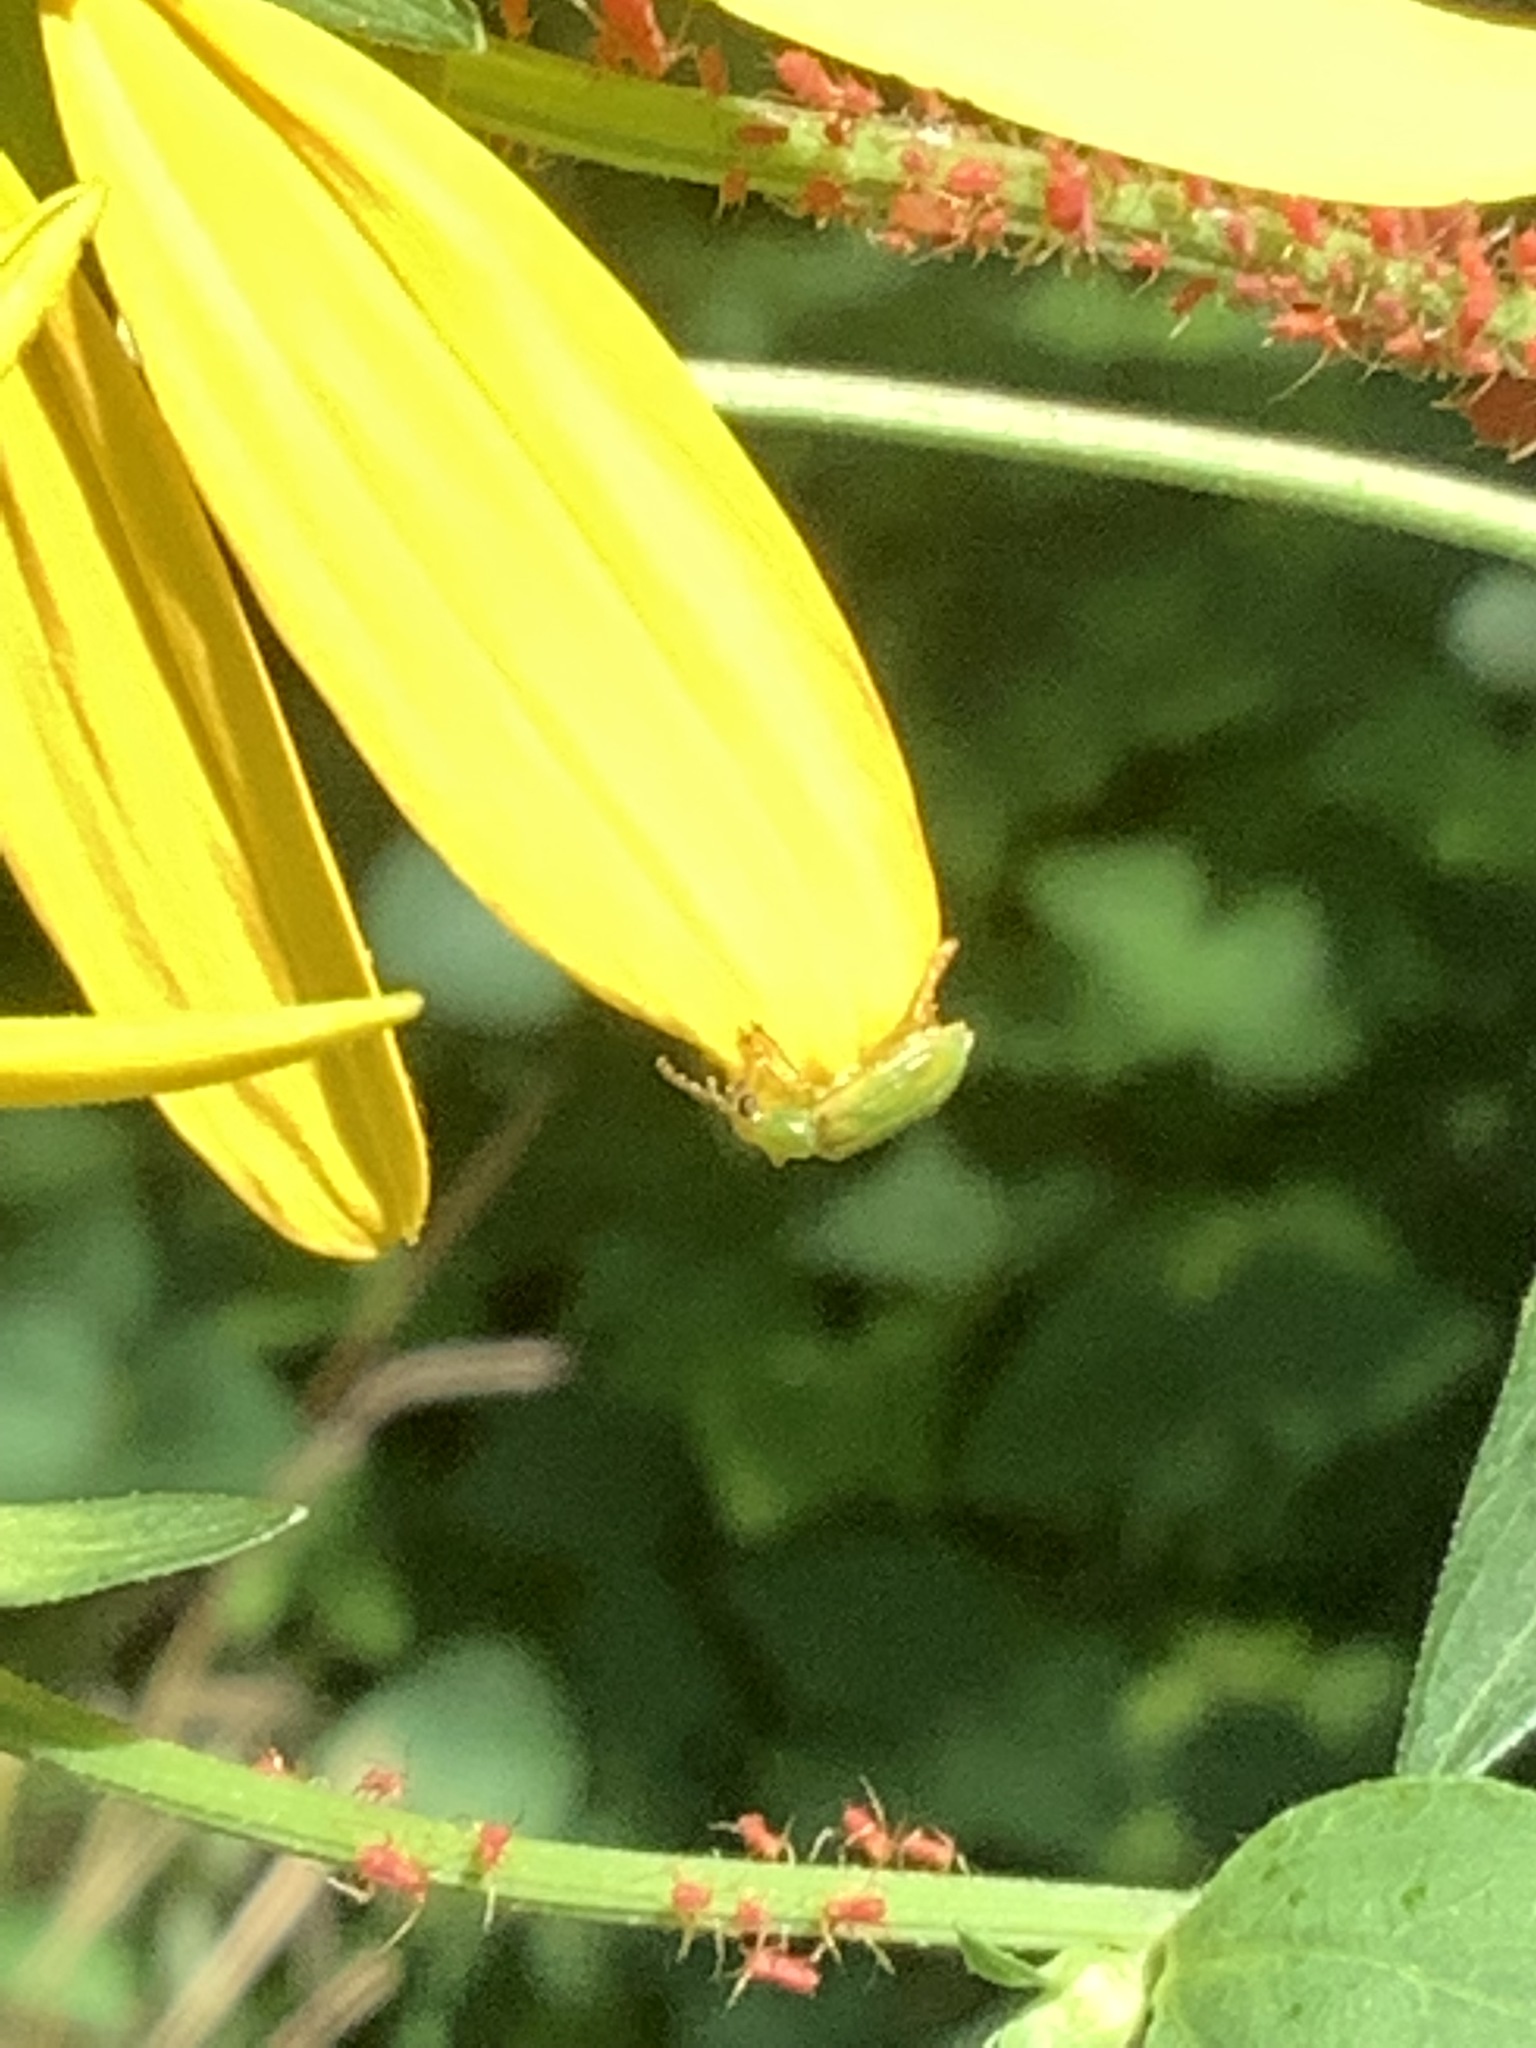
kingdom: Animalia
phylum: Arthropoda
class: Insecta
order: Coleoptera
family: Chrysomelidae
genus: Diabrotica
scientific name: Diabrotica barberi
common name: Northern corn rootworm
